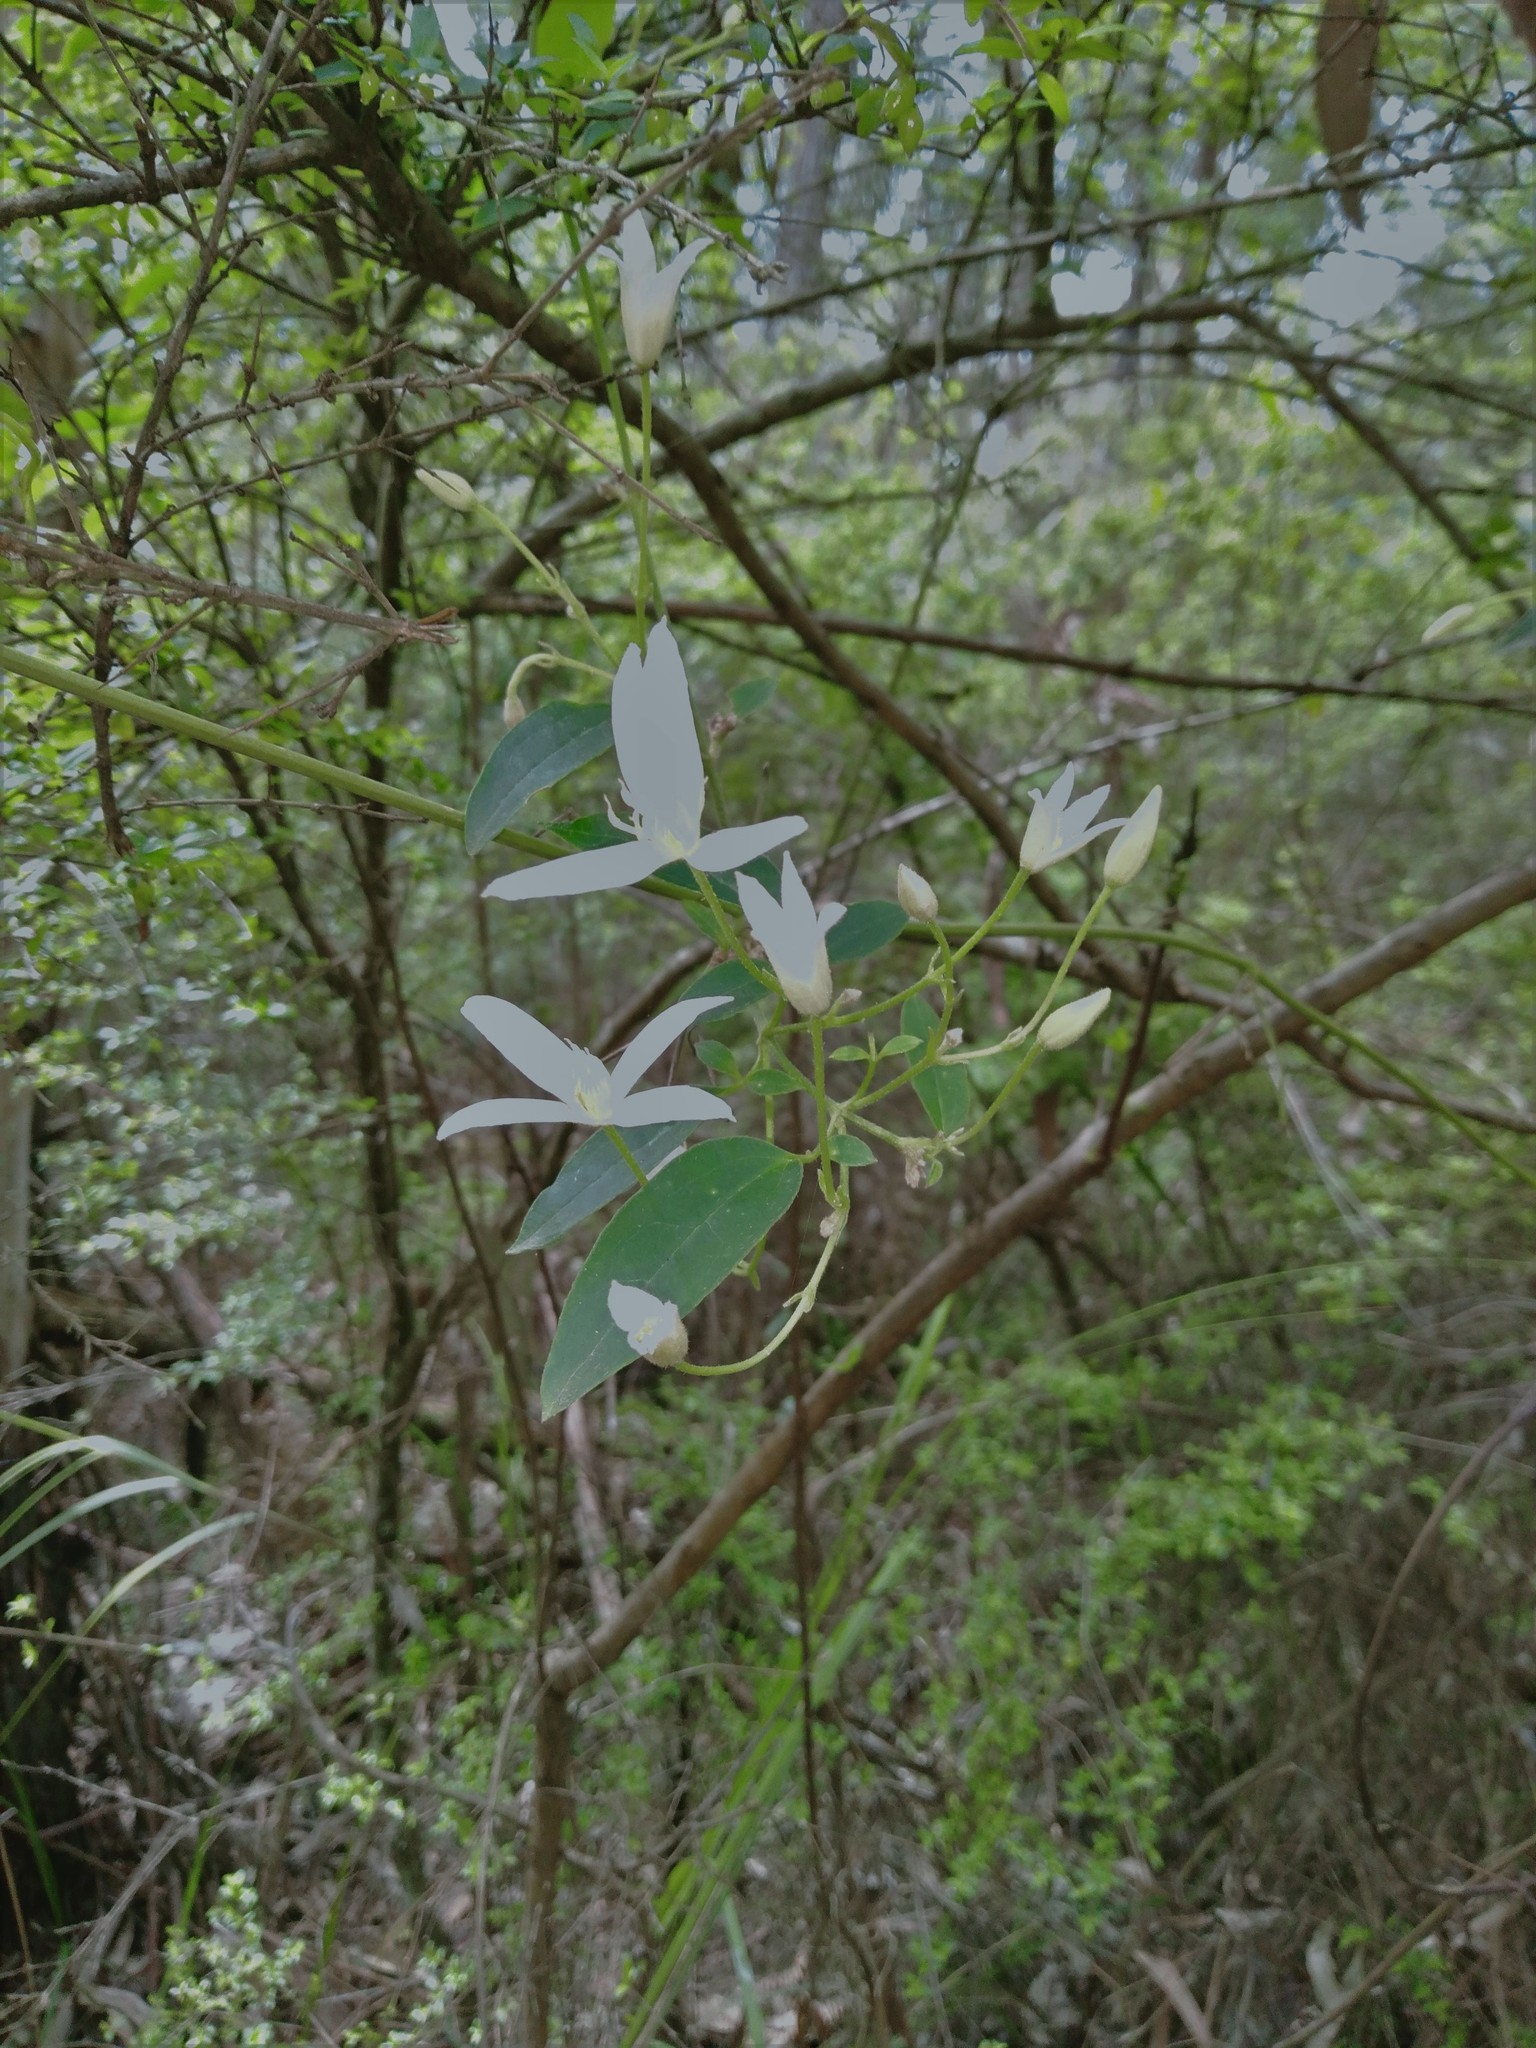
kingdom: Plantae
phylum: Tracheophyta
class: Magnoliopsida
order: Ranunculales
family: Ranunculaceae
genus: Clematis
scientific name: Clematis aristata
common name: Mountain clematis
